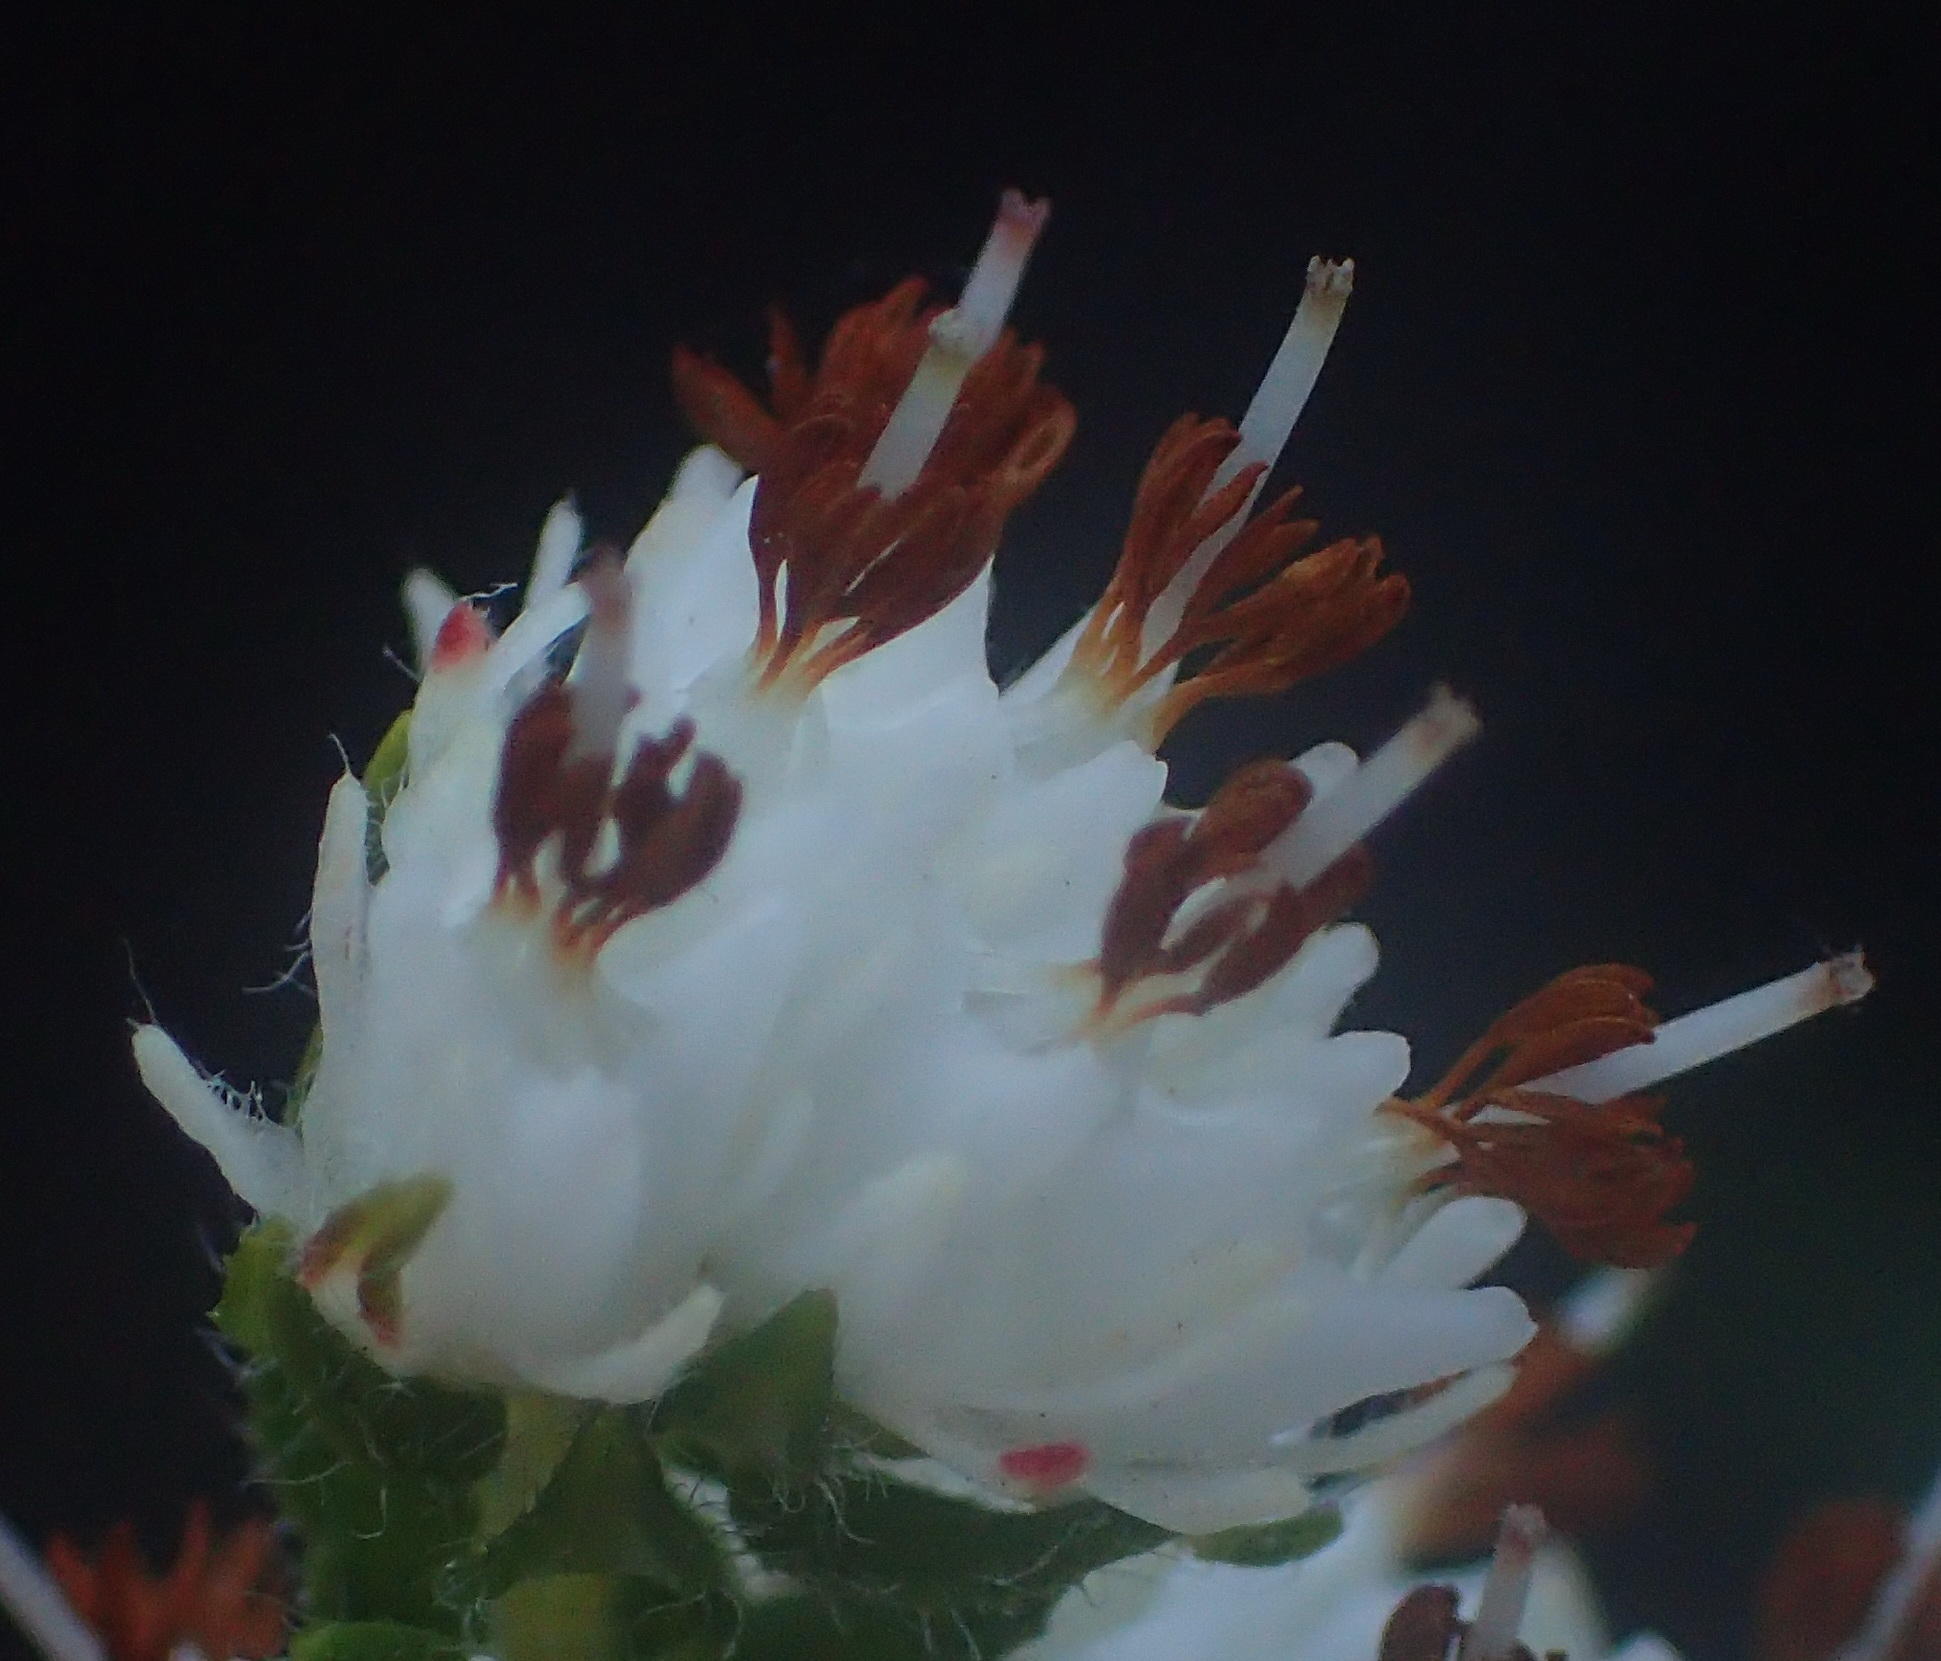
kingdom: Plantae
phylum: Tracheophyta
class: Magnoliopsida
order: Ericales
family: Ericaceae
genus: Erica
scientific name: Erica lehmannii
